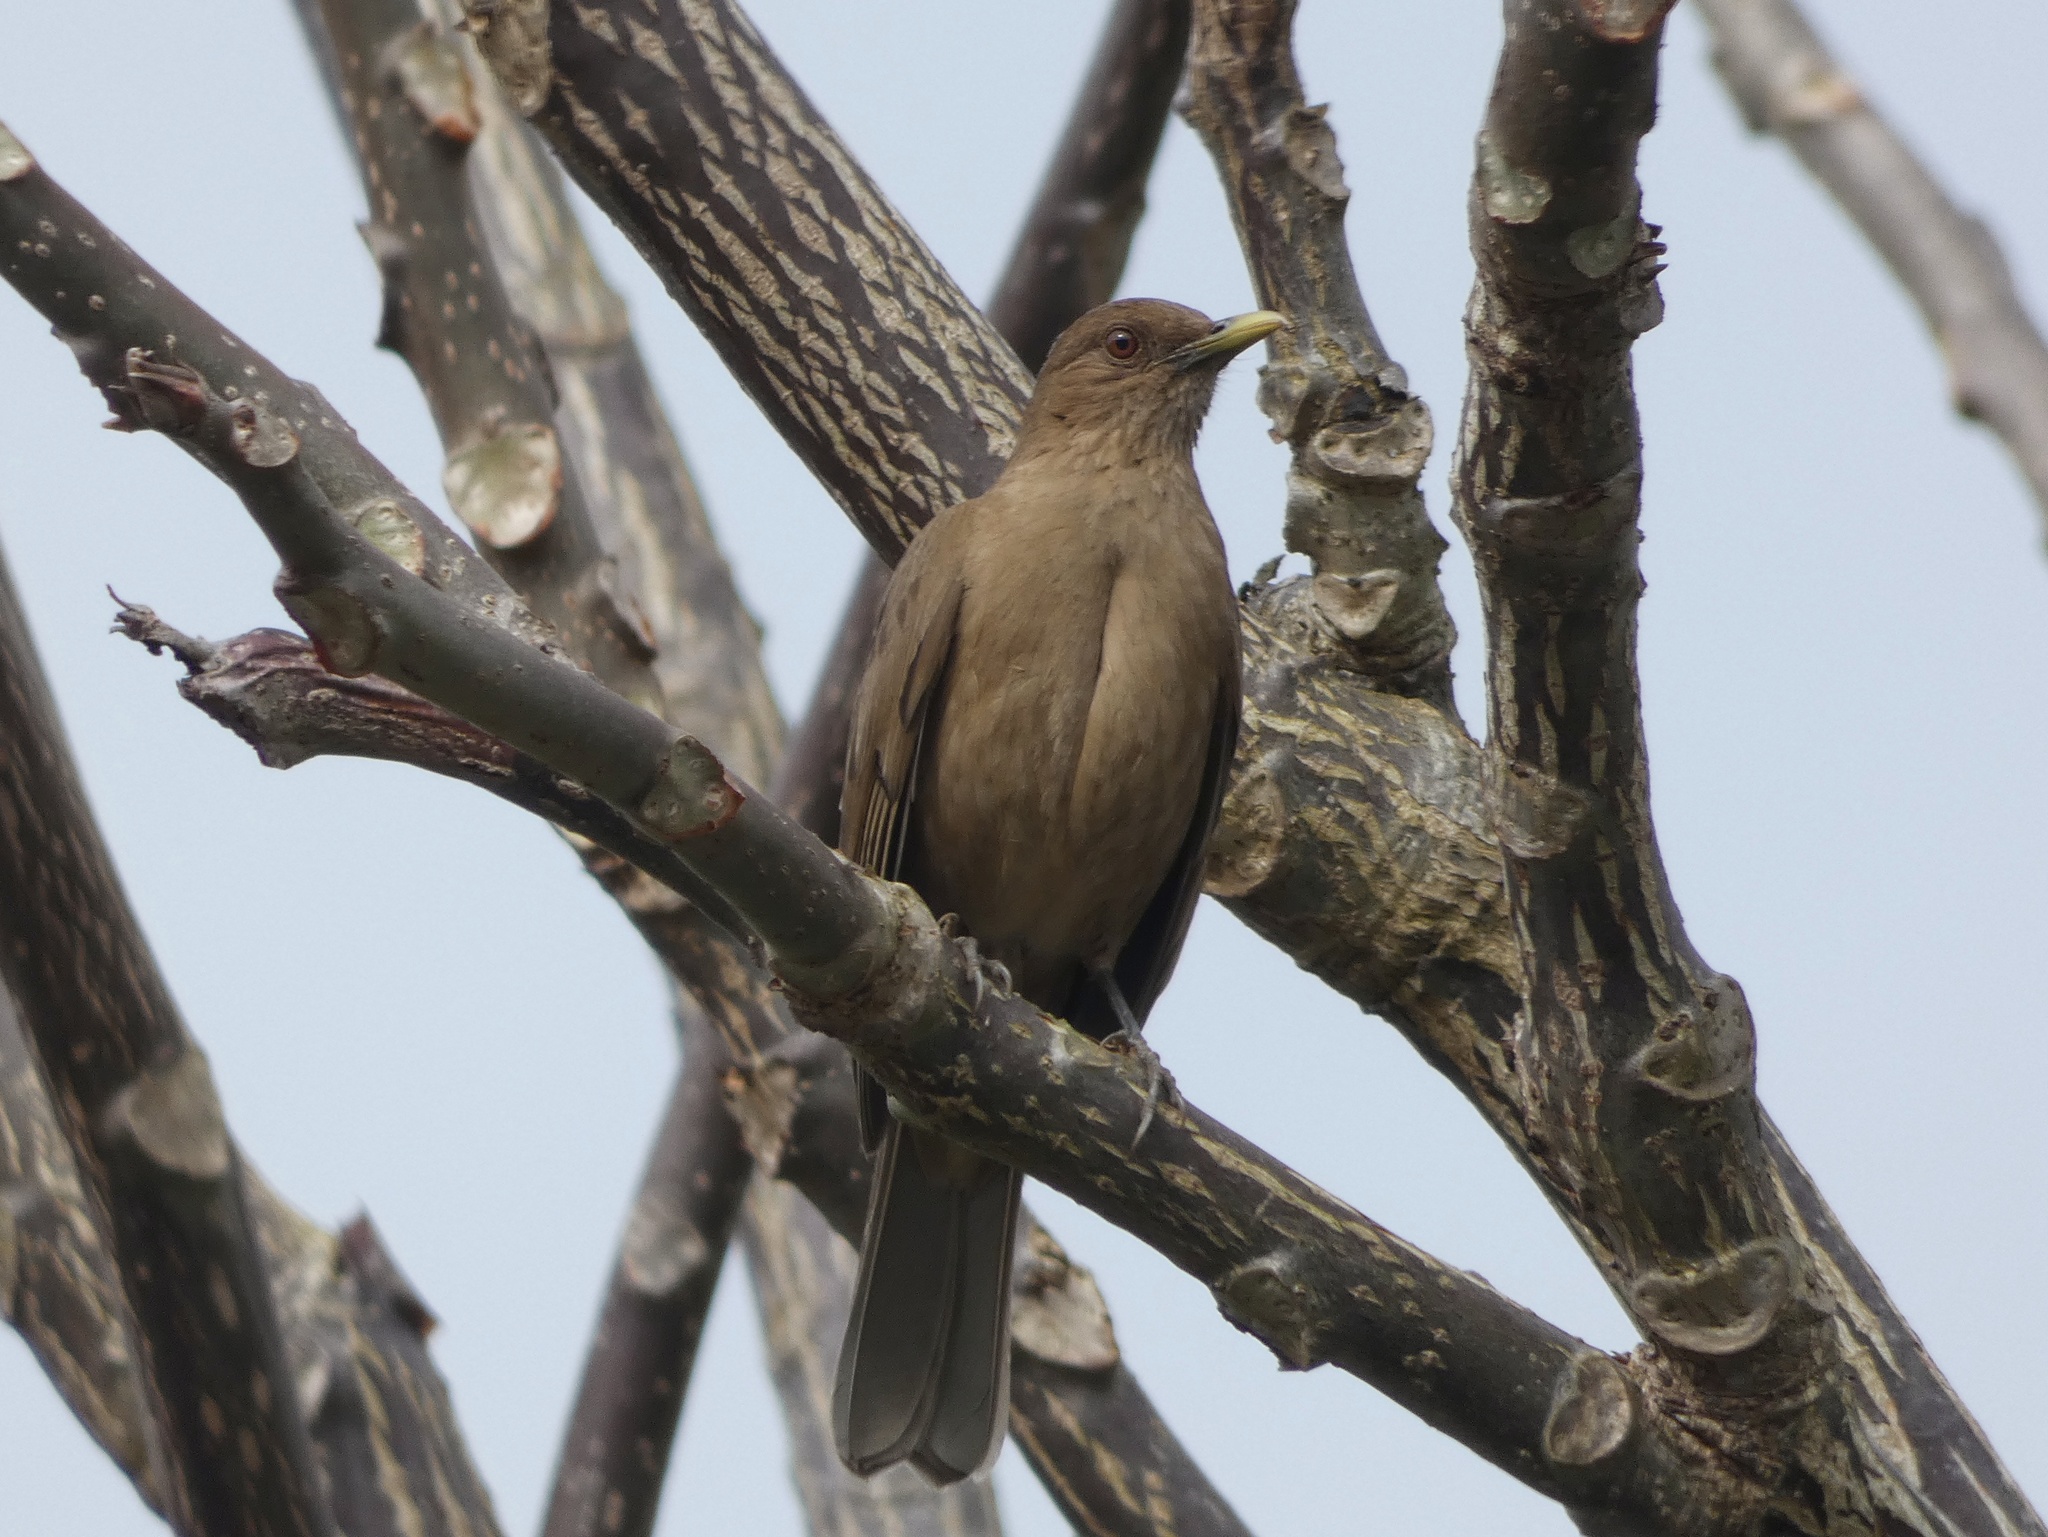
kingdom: Animalia
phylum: Chordata
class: Aves
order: Passeriformes
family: Turdidae
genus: Turdus
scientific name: Turdus grayi
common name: Clay-colored thrush
